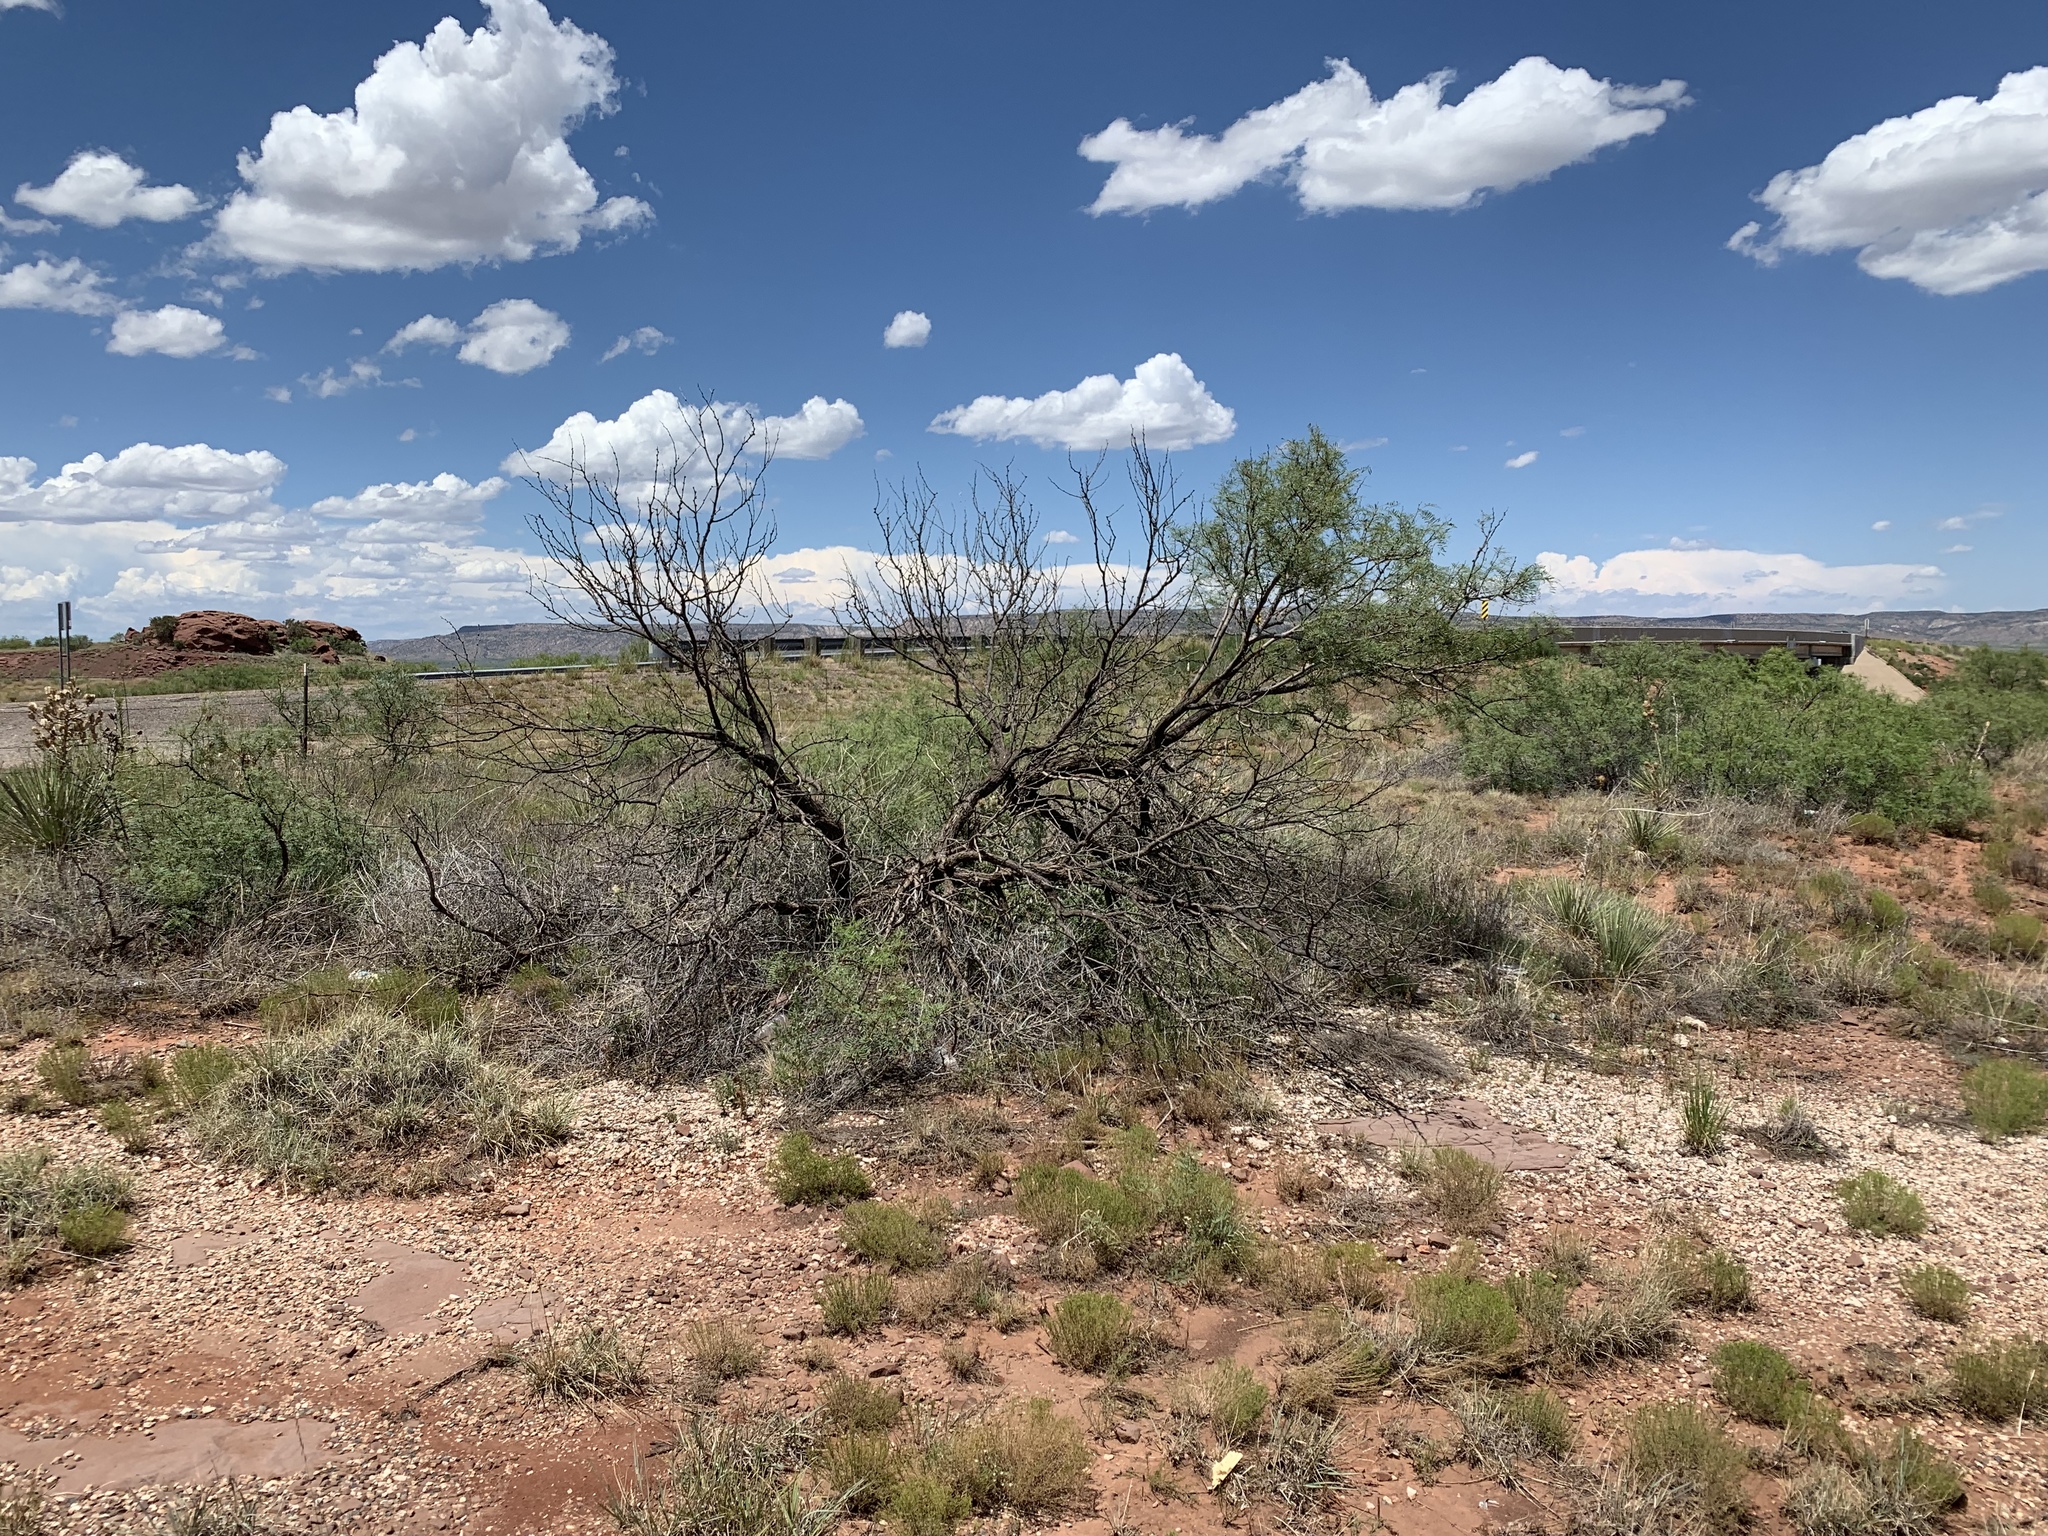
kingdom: Plantae
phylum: Tracheophyta
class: Magnoliopsida
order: Fabales
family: Fabaceae
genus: Prosopis
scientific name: Prosopis glandulosa
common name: Honey mesquite
